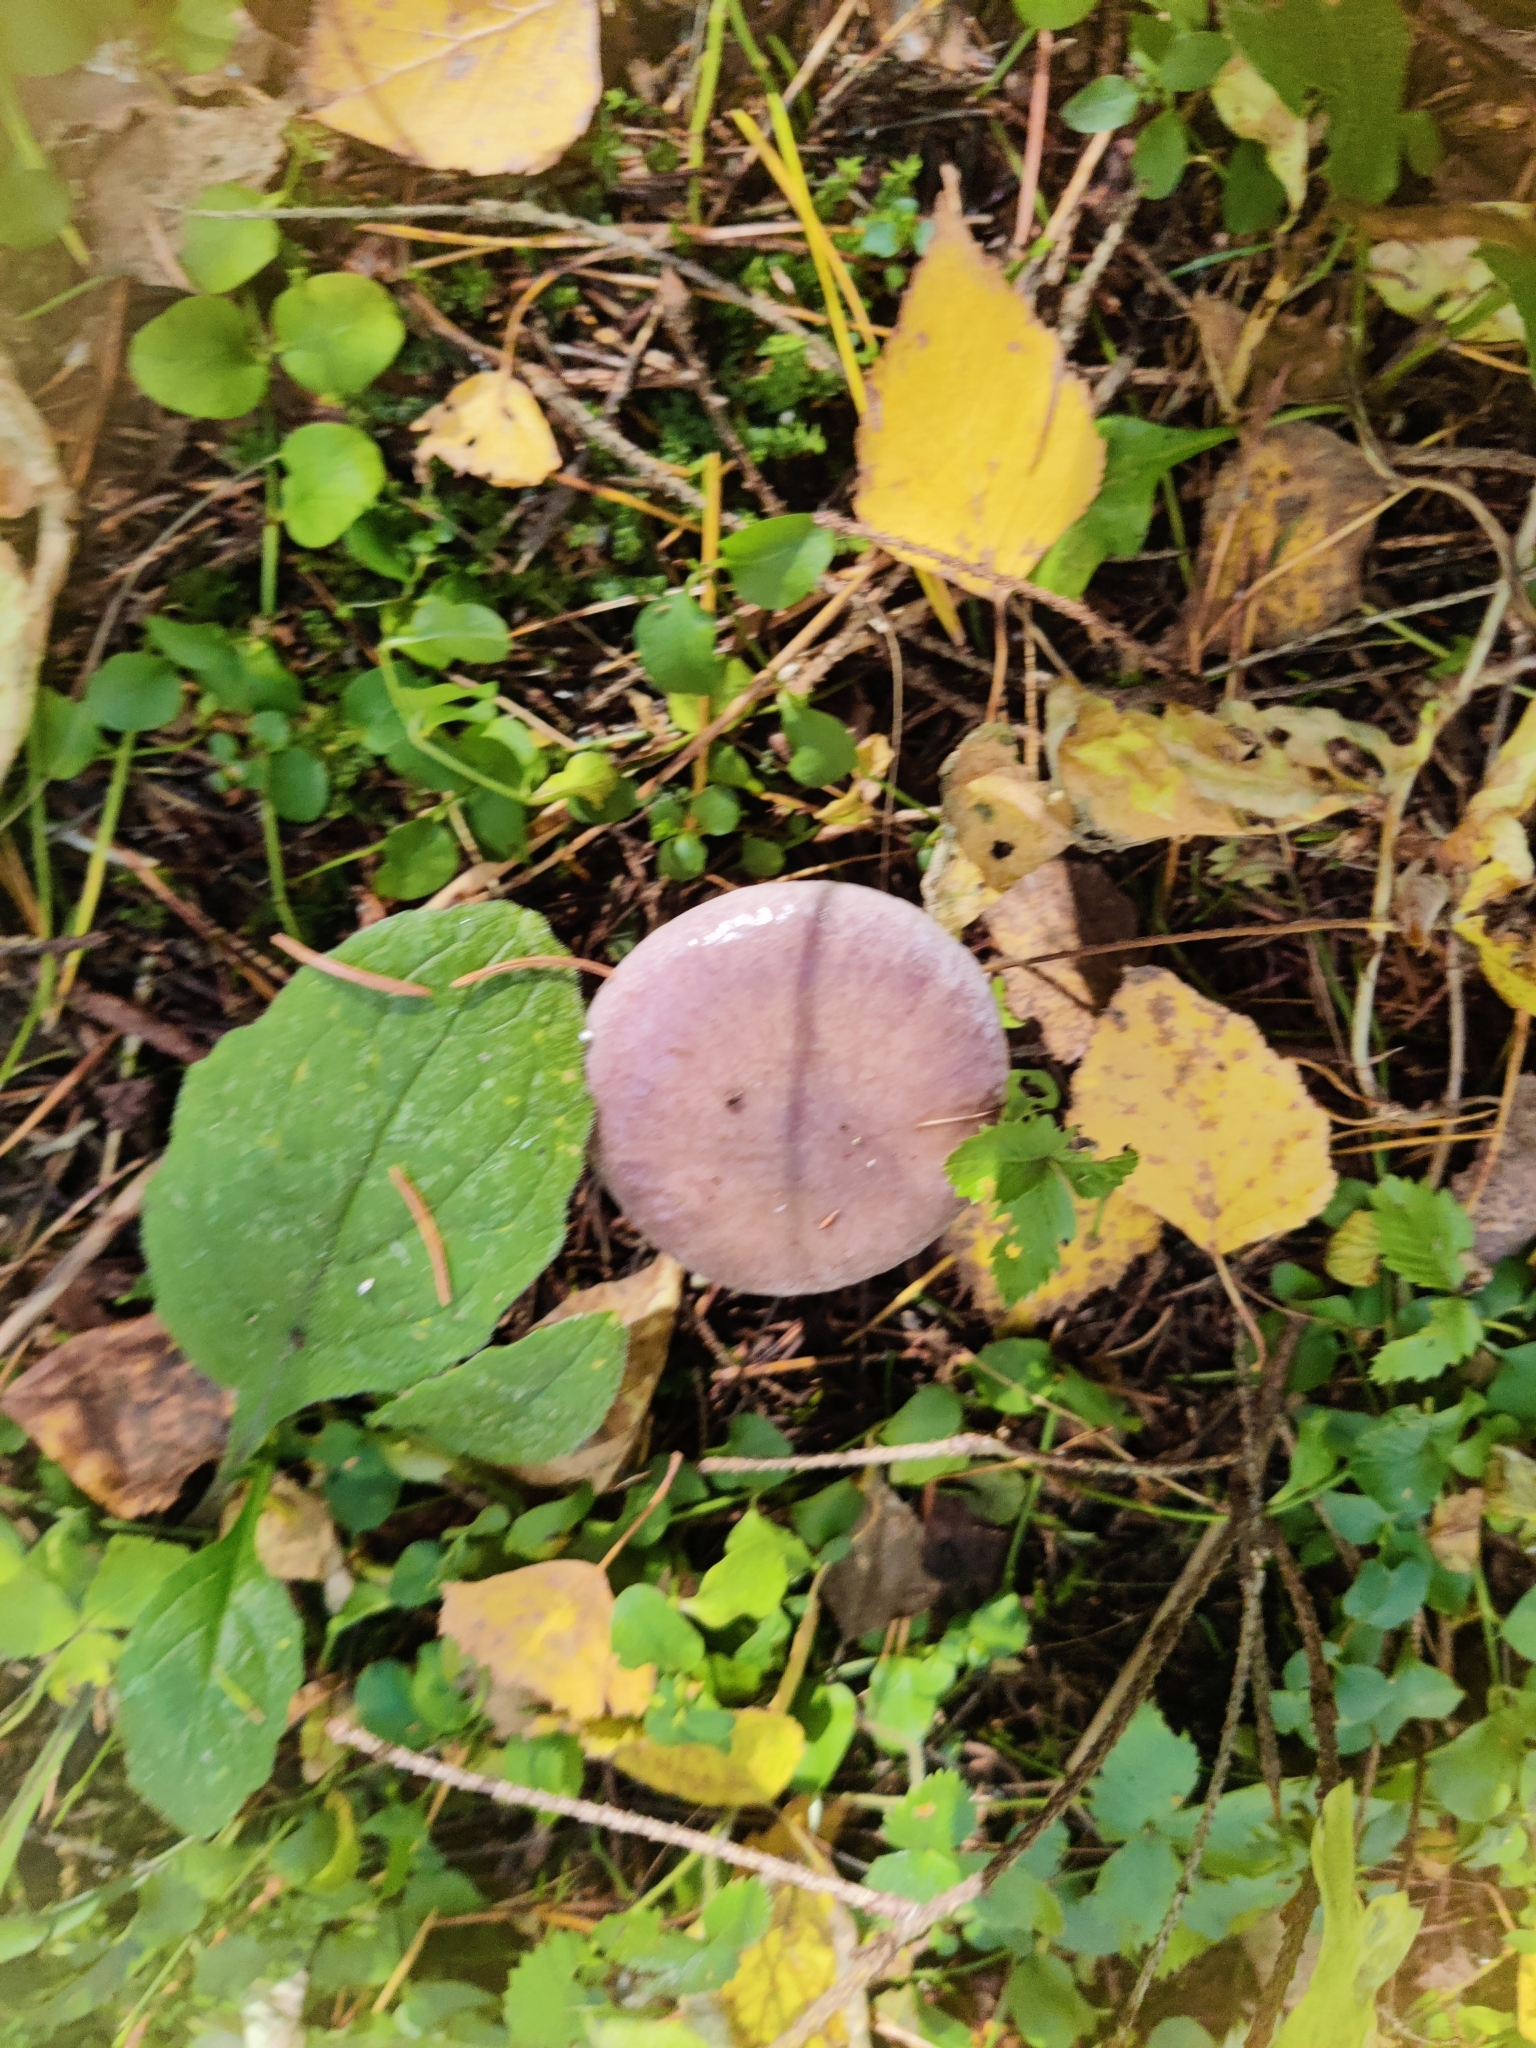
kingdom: Fungi
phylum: Basidiomycota
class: Agaricomycetes
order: Boletales
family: Gomphidiaceae
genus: Gomphidius
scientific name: Gomphidius glutinosus
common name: Slimy spike
